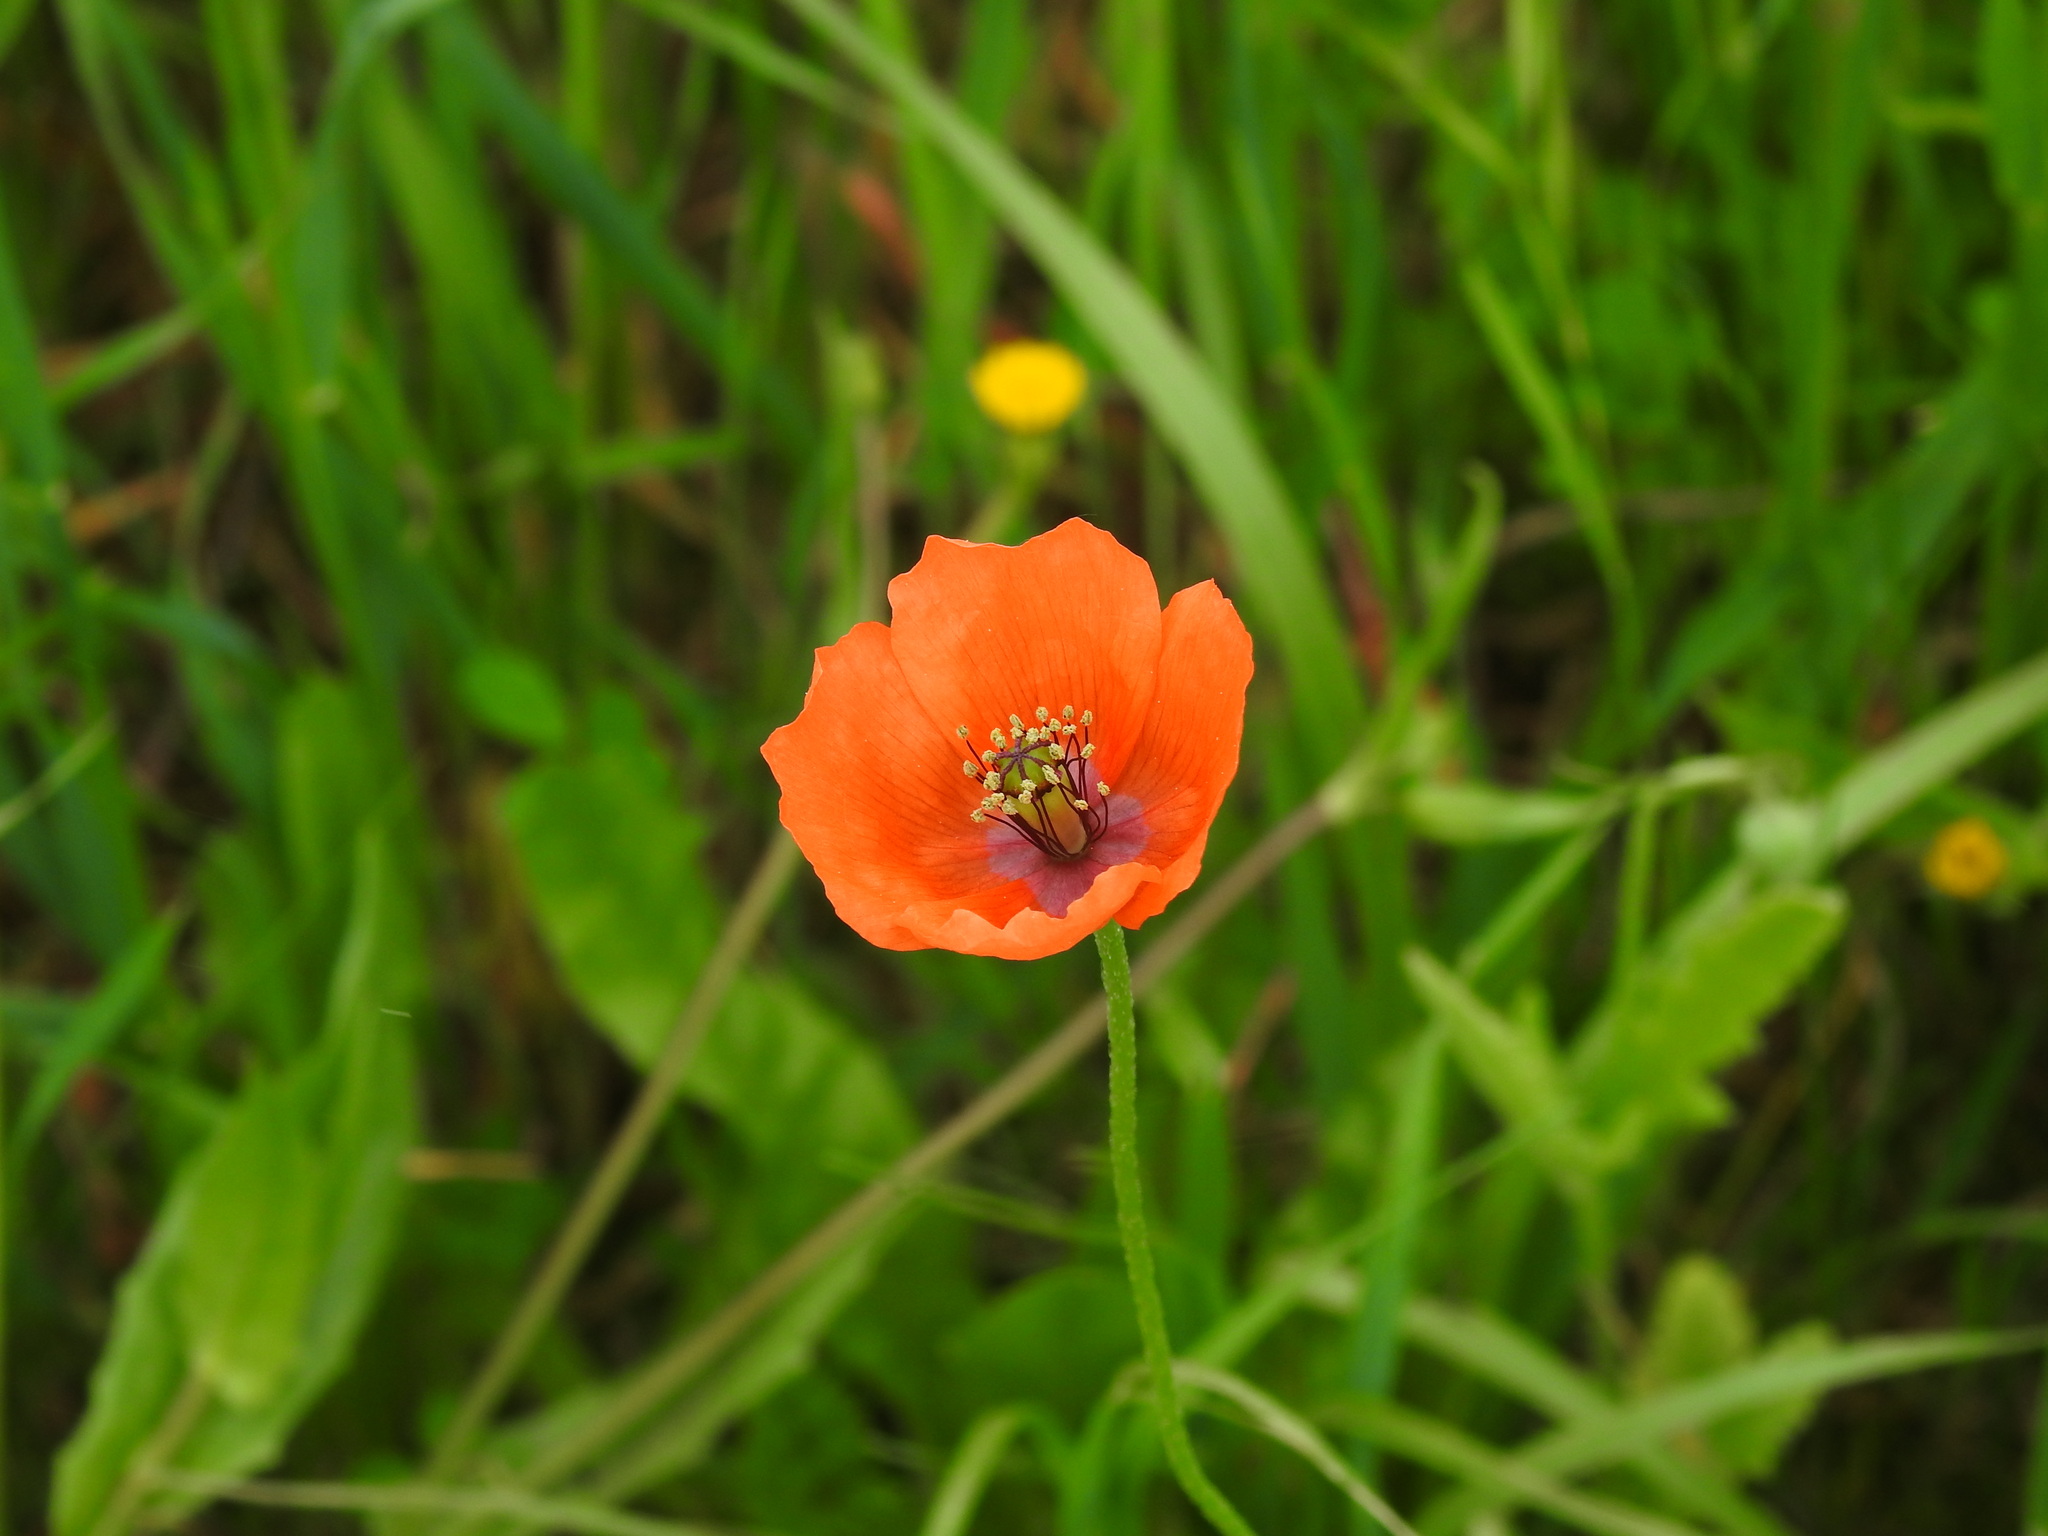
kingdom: Plantae
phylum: Tracheophyta
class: Magnoliopsida
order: Ranunculales
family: Papaveraceae
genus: Papaver
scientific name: Papaver dubium
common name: Long-headed poppy
